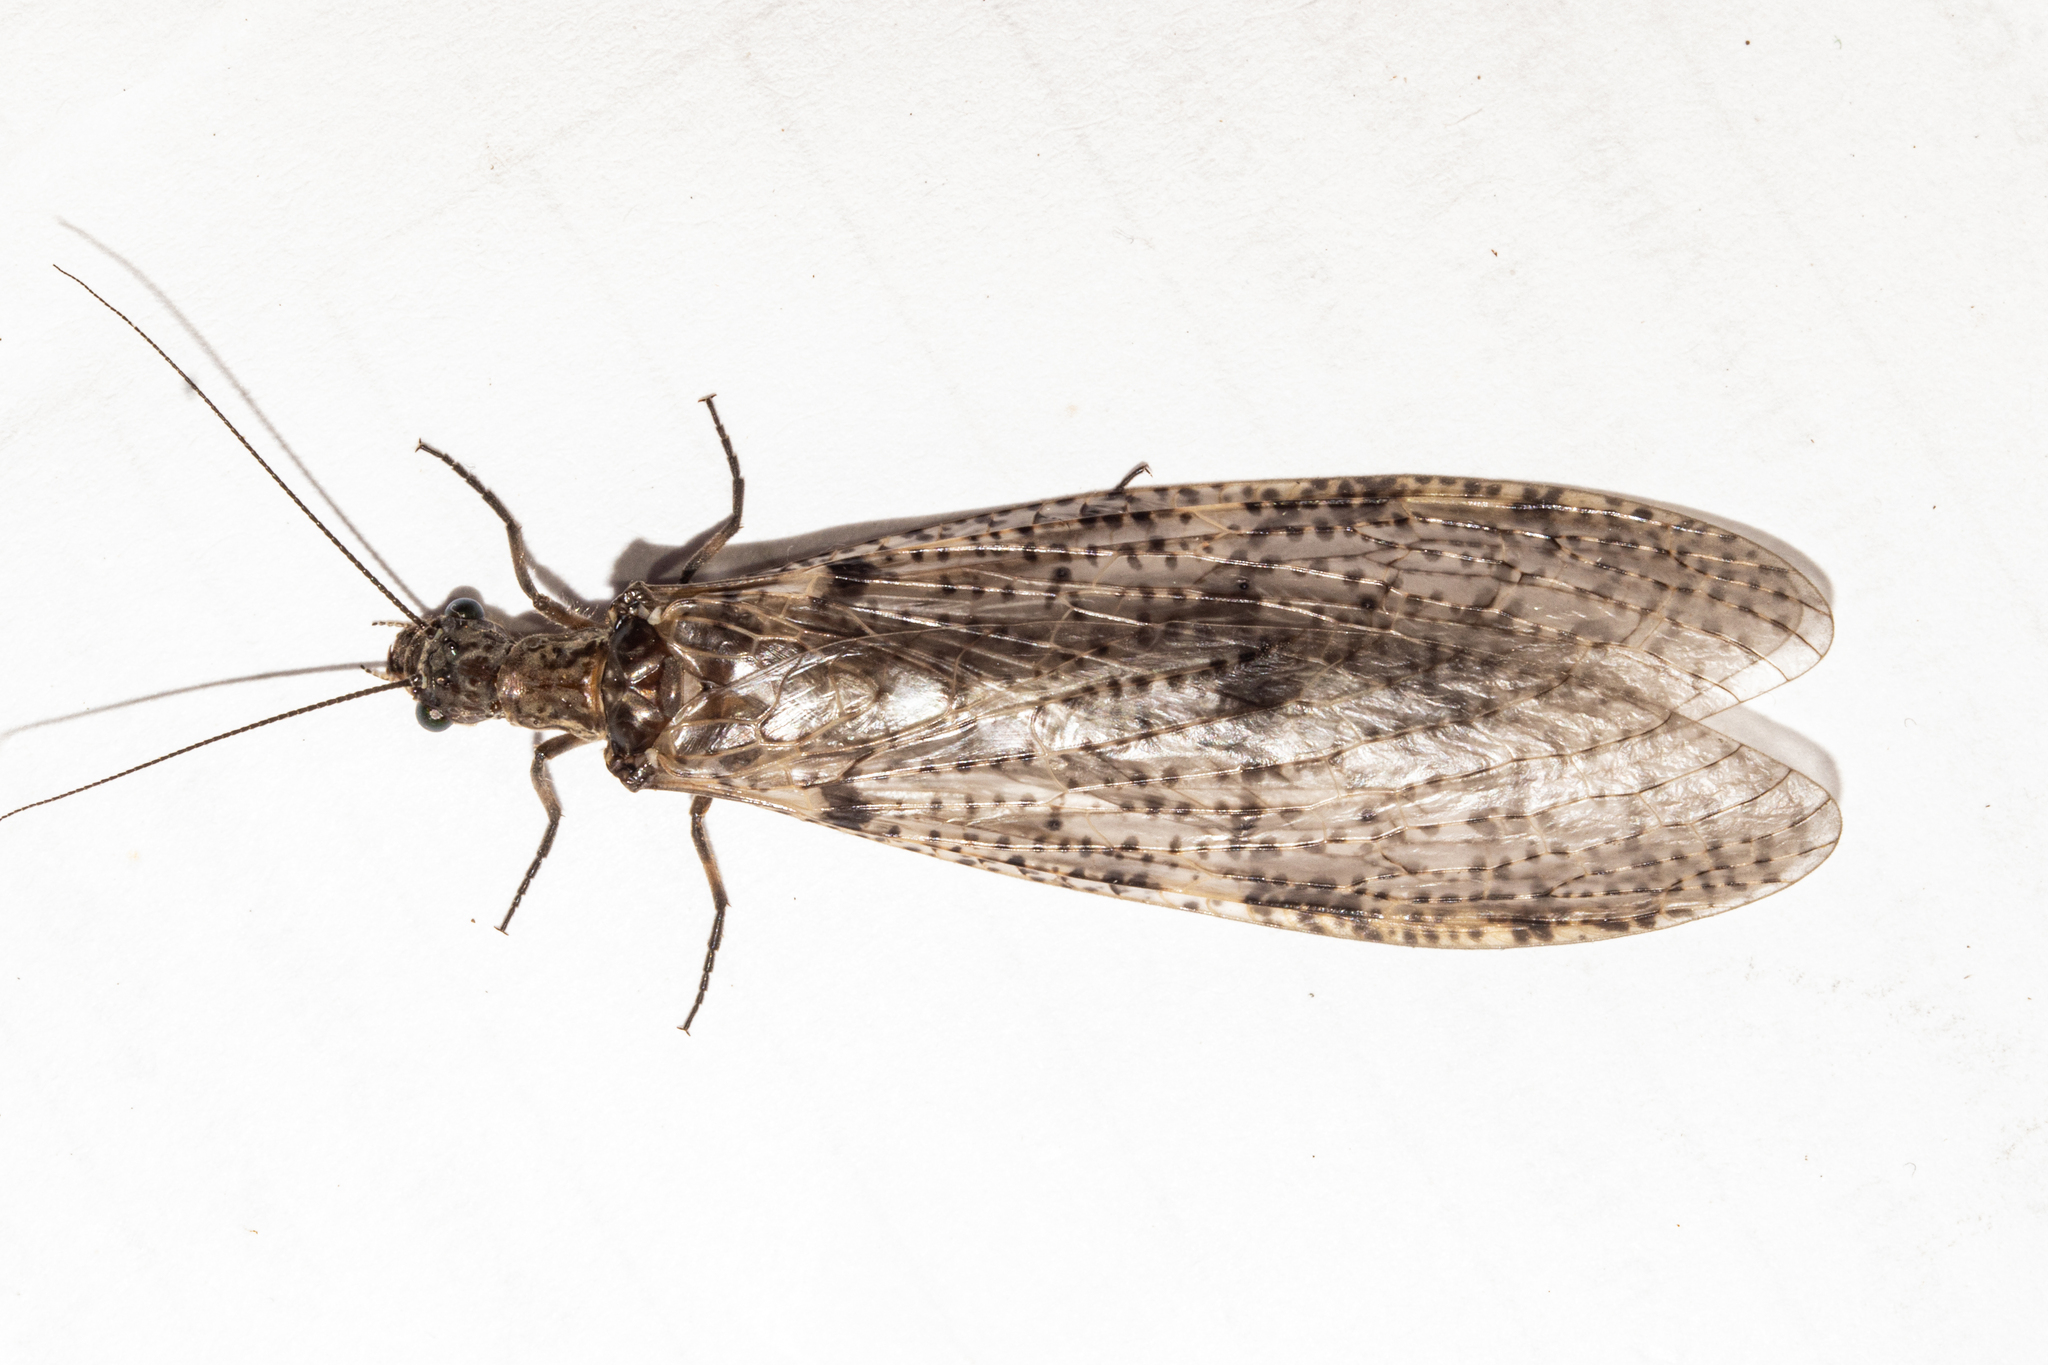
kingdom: Animalia
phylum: Arthropoda
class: Insecta
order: Megaloptera
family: Corydalidae
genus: Archichauliodes
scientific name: Archichauliodes diversus
